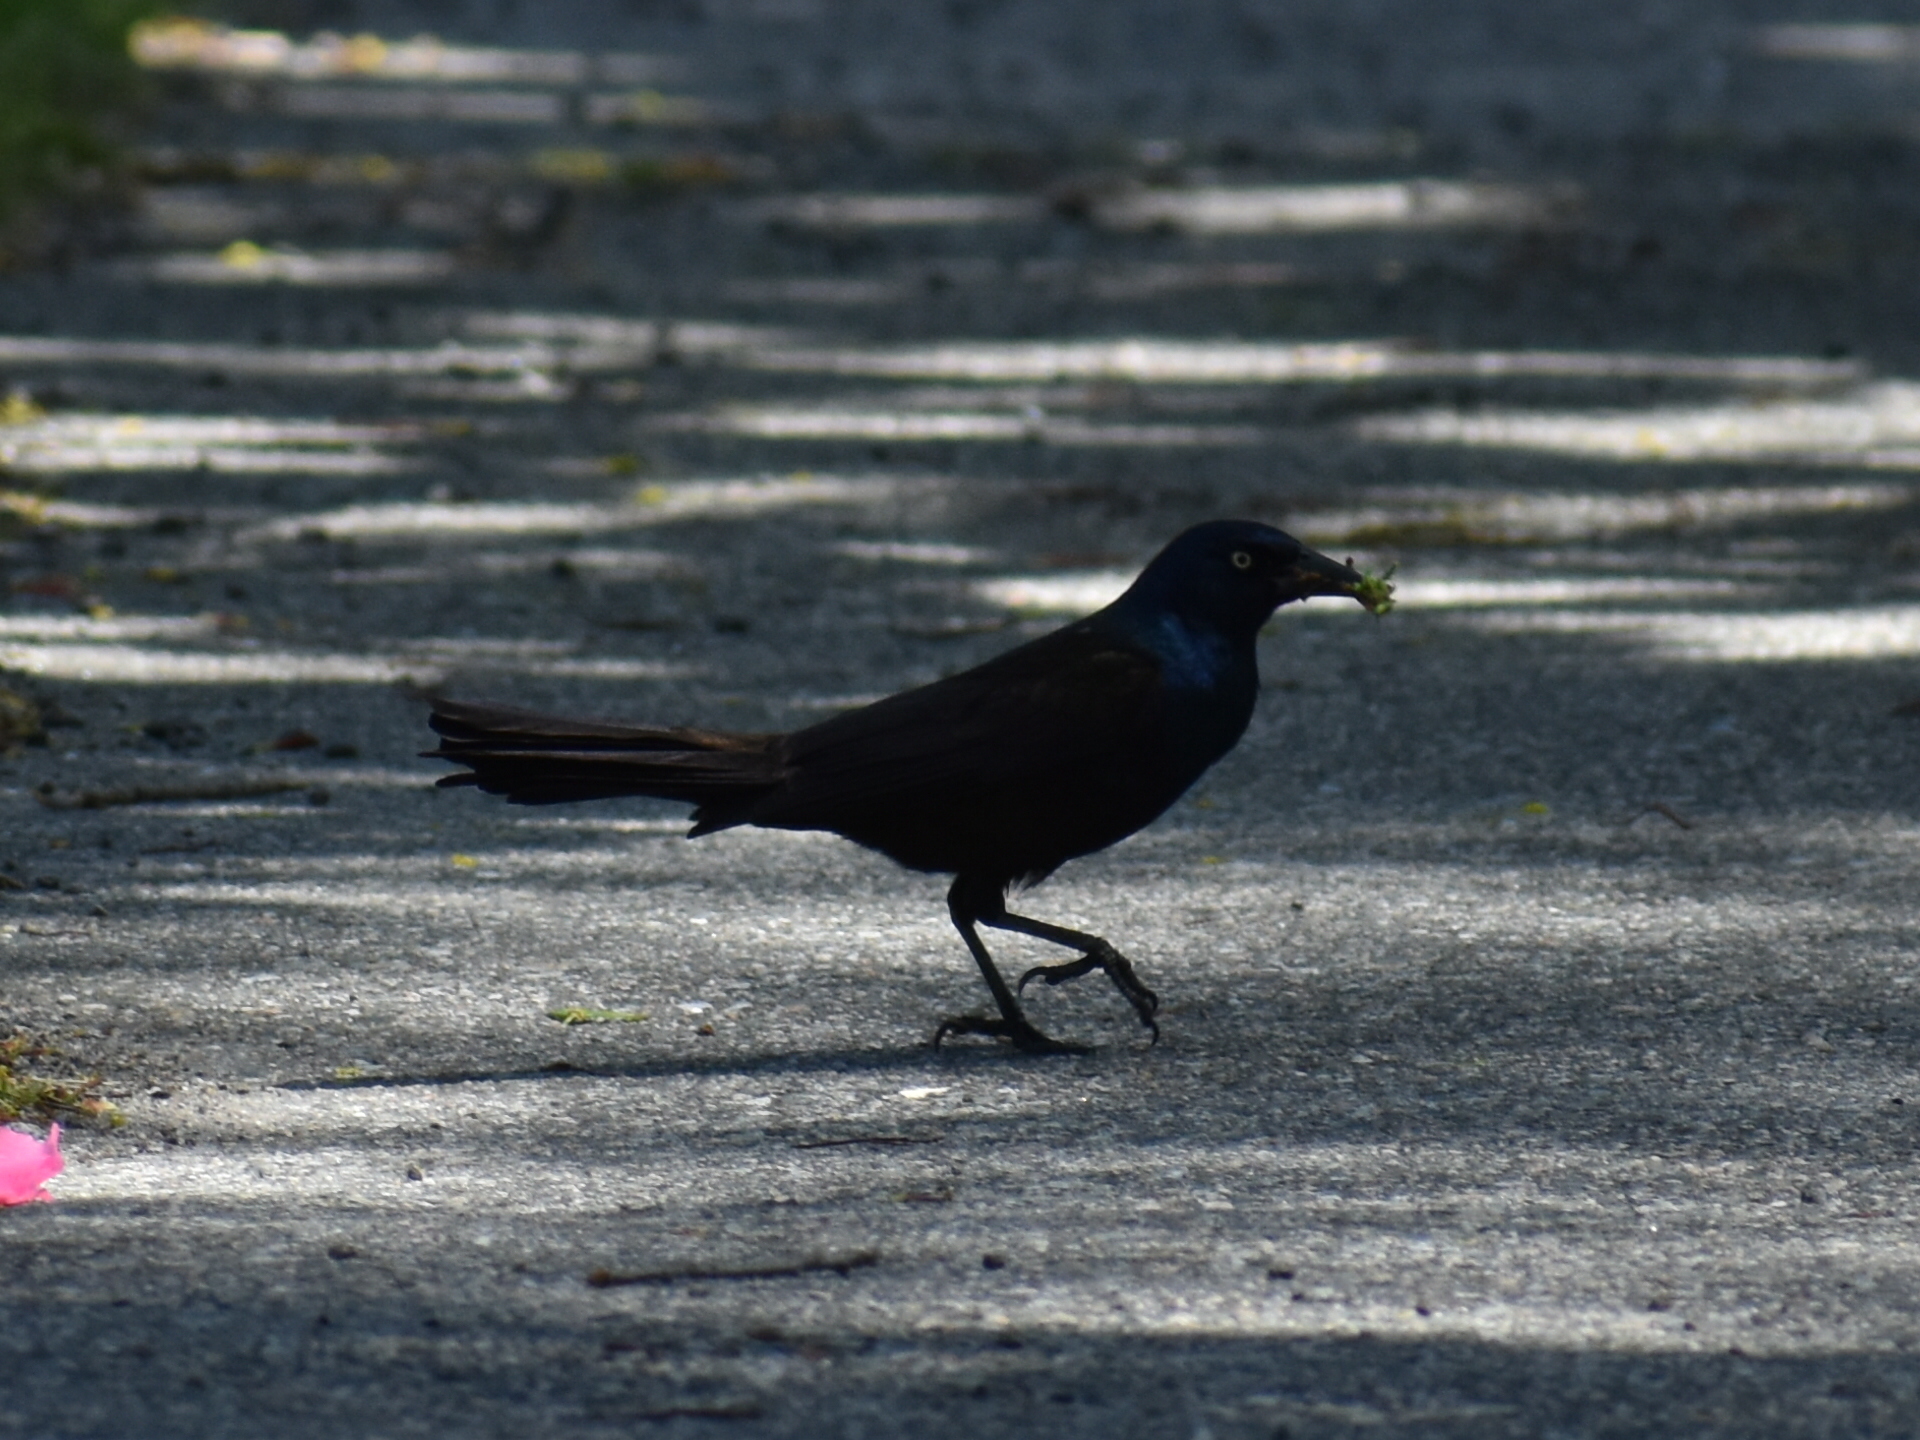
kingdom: Animalia
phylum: Chordata
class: Aves
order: Passeriformes
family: Icteridae
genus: Quiscalus
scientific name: Quiscalus quiscula
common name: Common grackle
